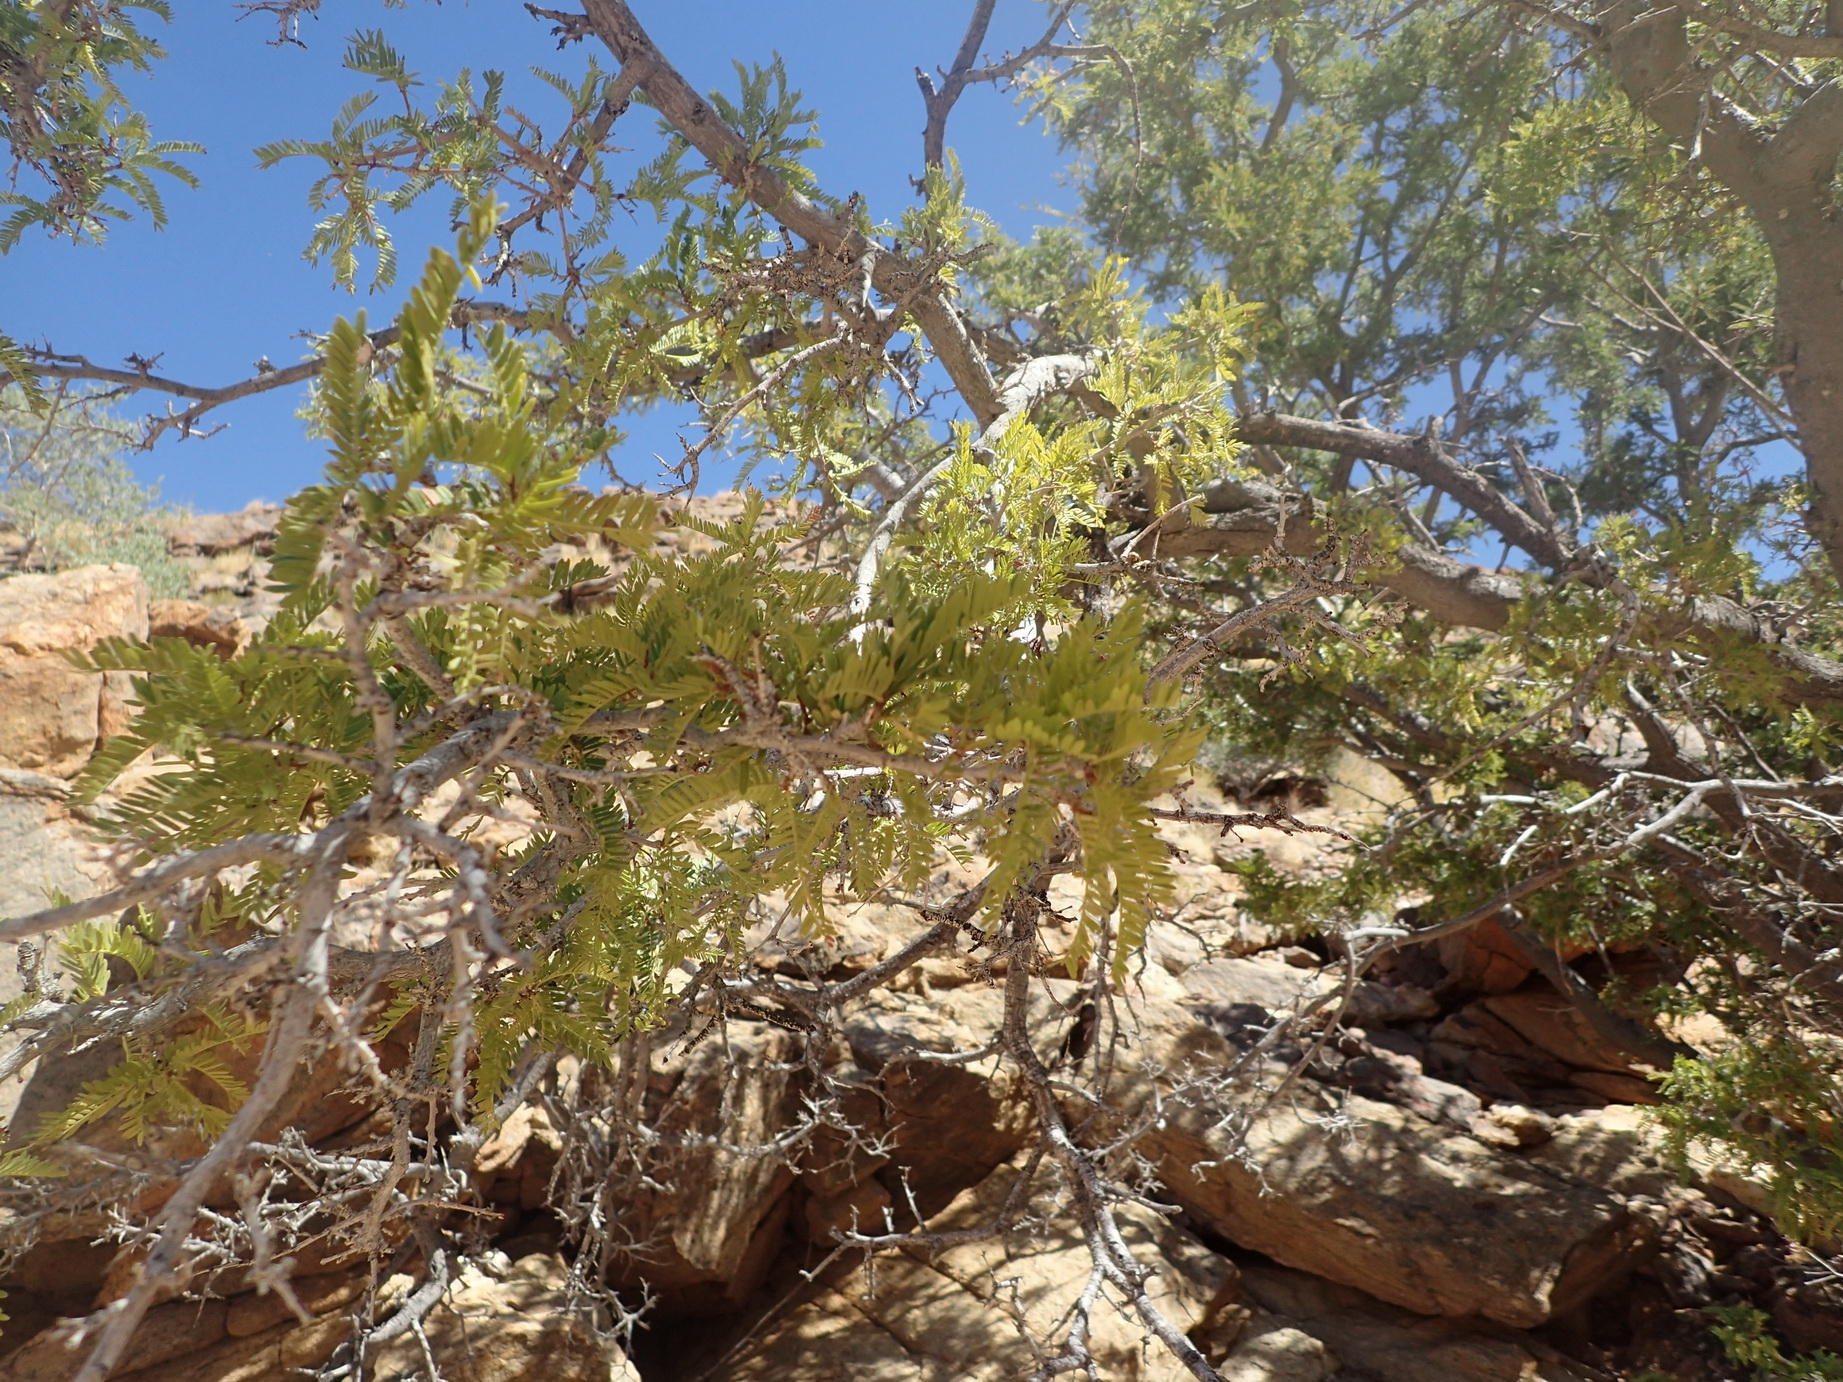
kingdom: Plantae
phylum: Tracheophyta
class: Magnoliopsida
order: Fabales
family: Fabaceae
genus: Schotia
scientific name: Schotia afra
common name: Hottentot's bean
